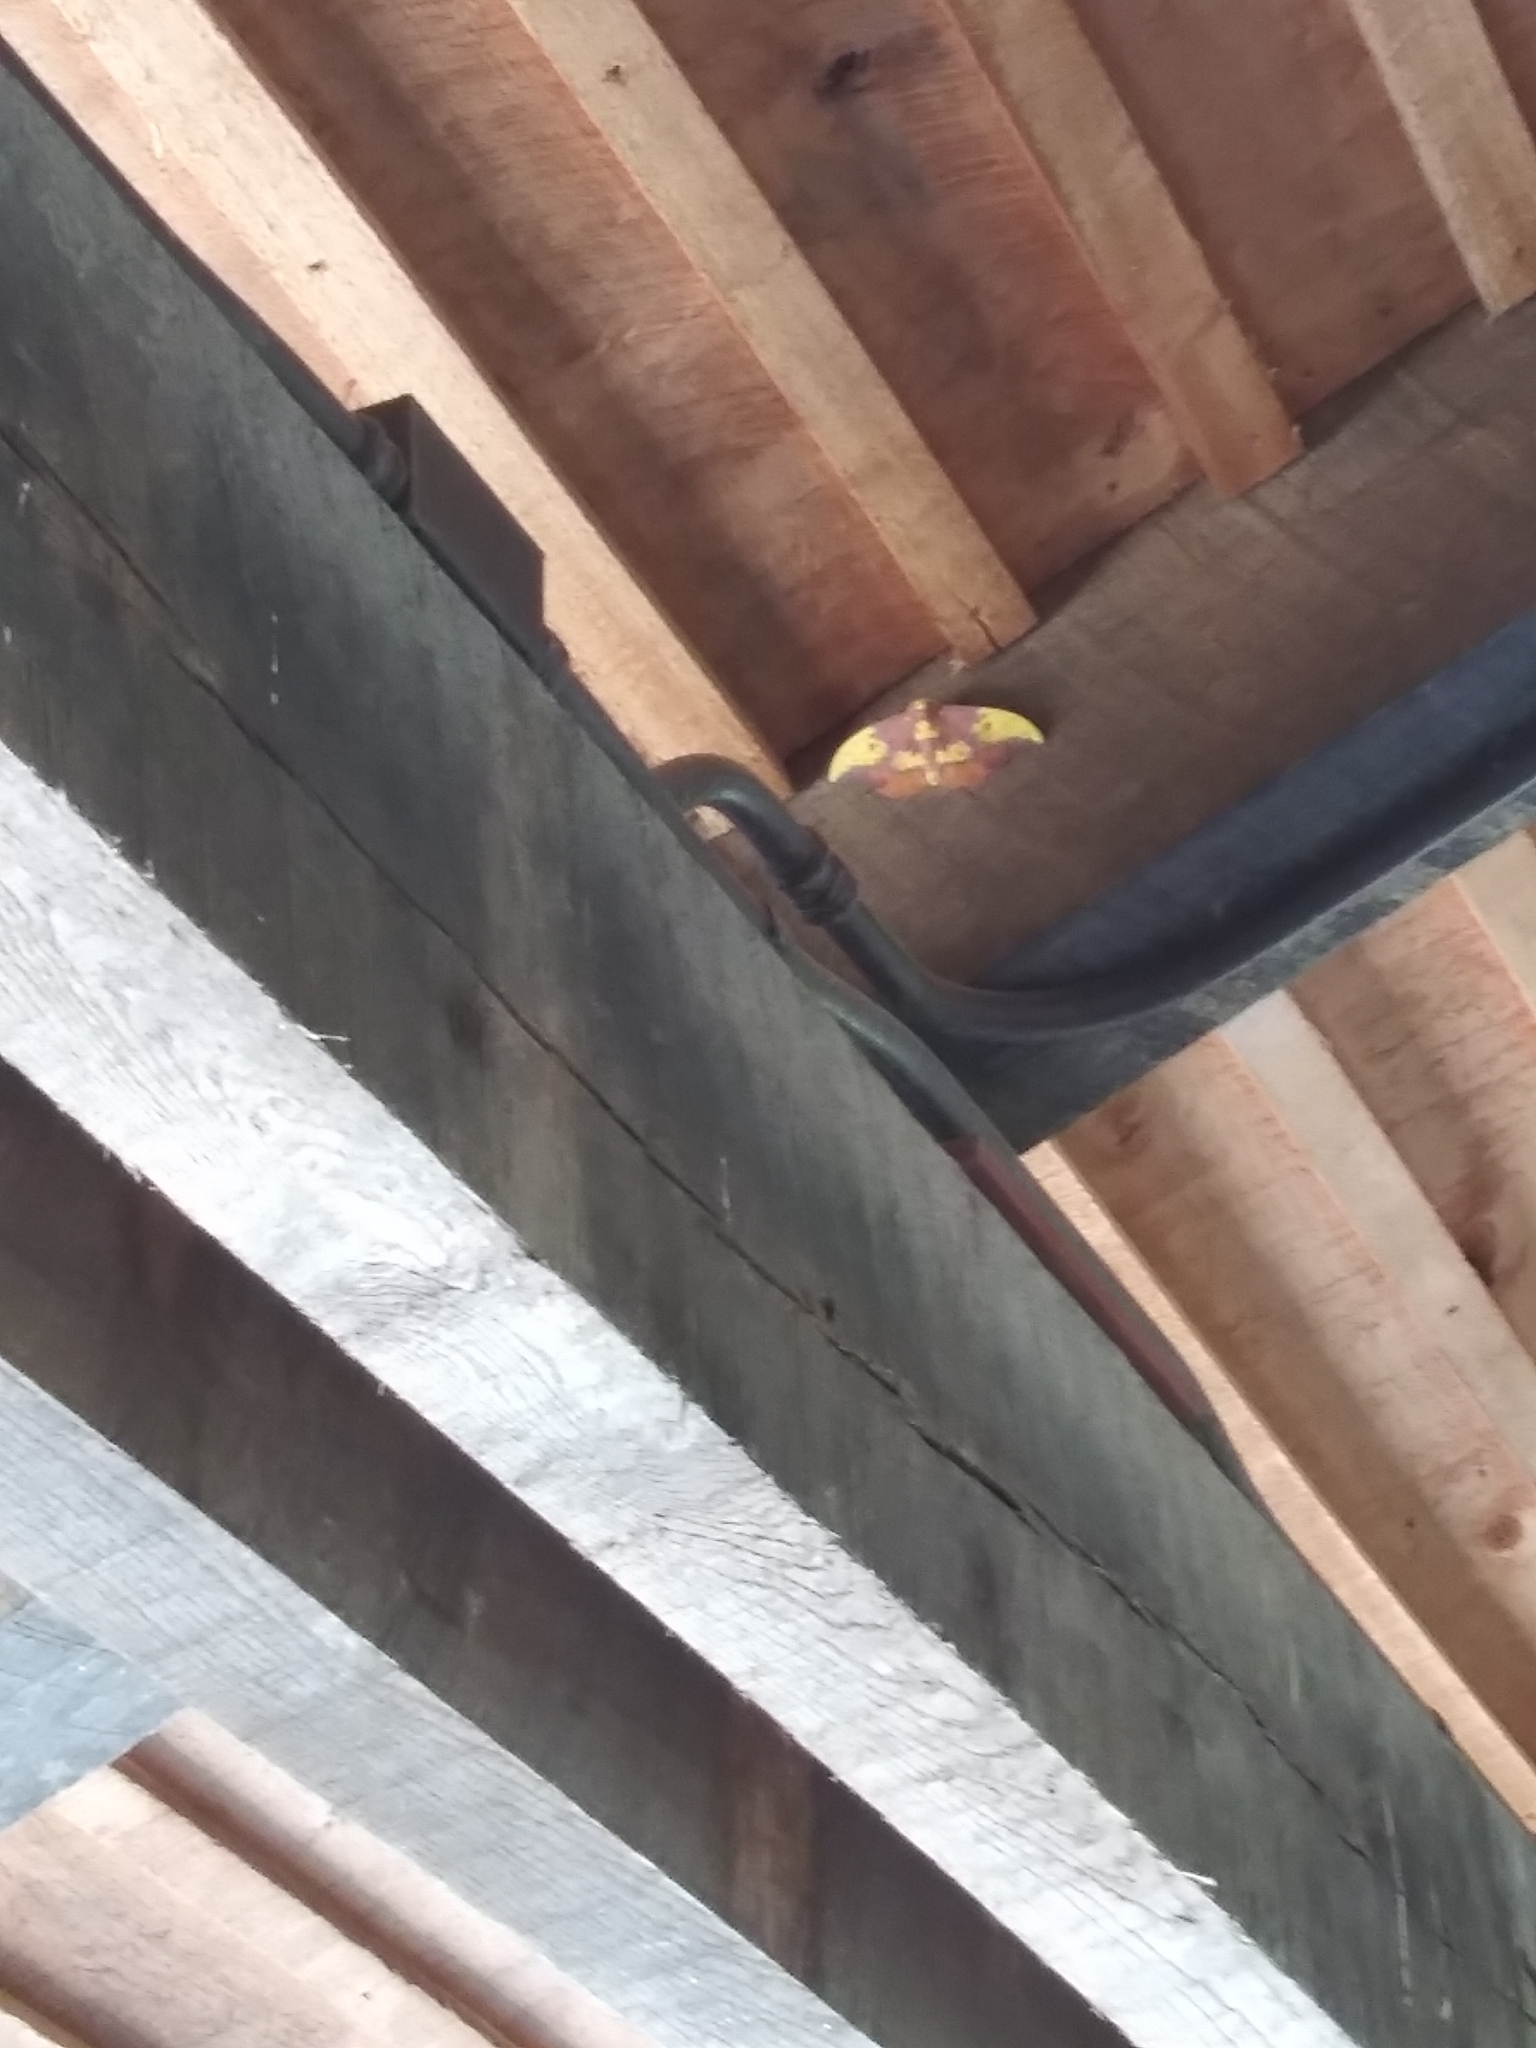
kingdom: Animalia
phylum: Arthropoda
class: Insecta
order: Lepidoptera
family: Saturniidae
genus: Eacles
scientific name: Eacles imperialis
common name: Imperial moth
